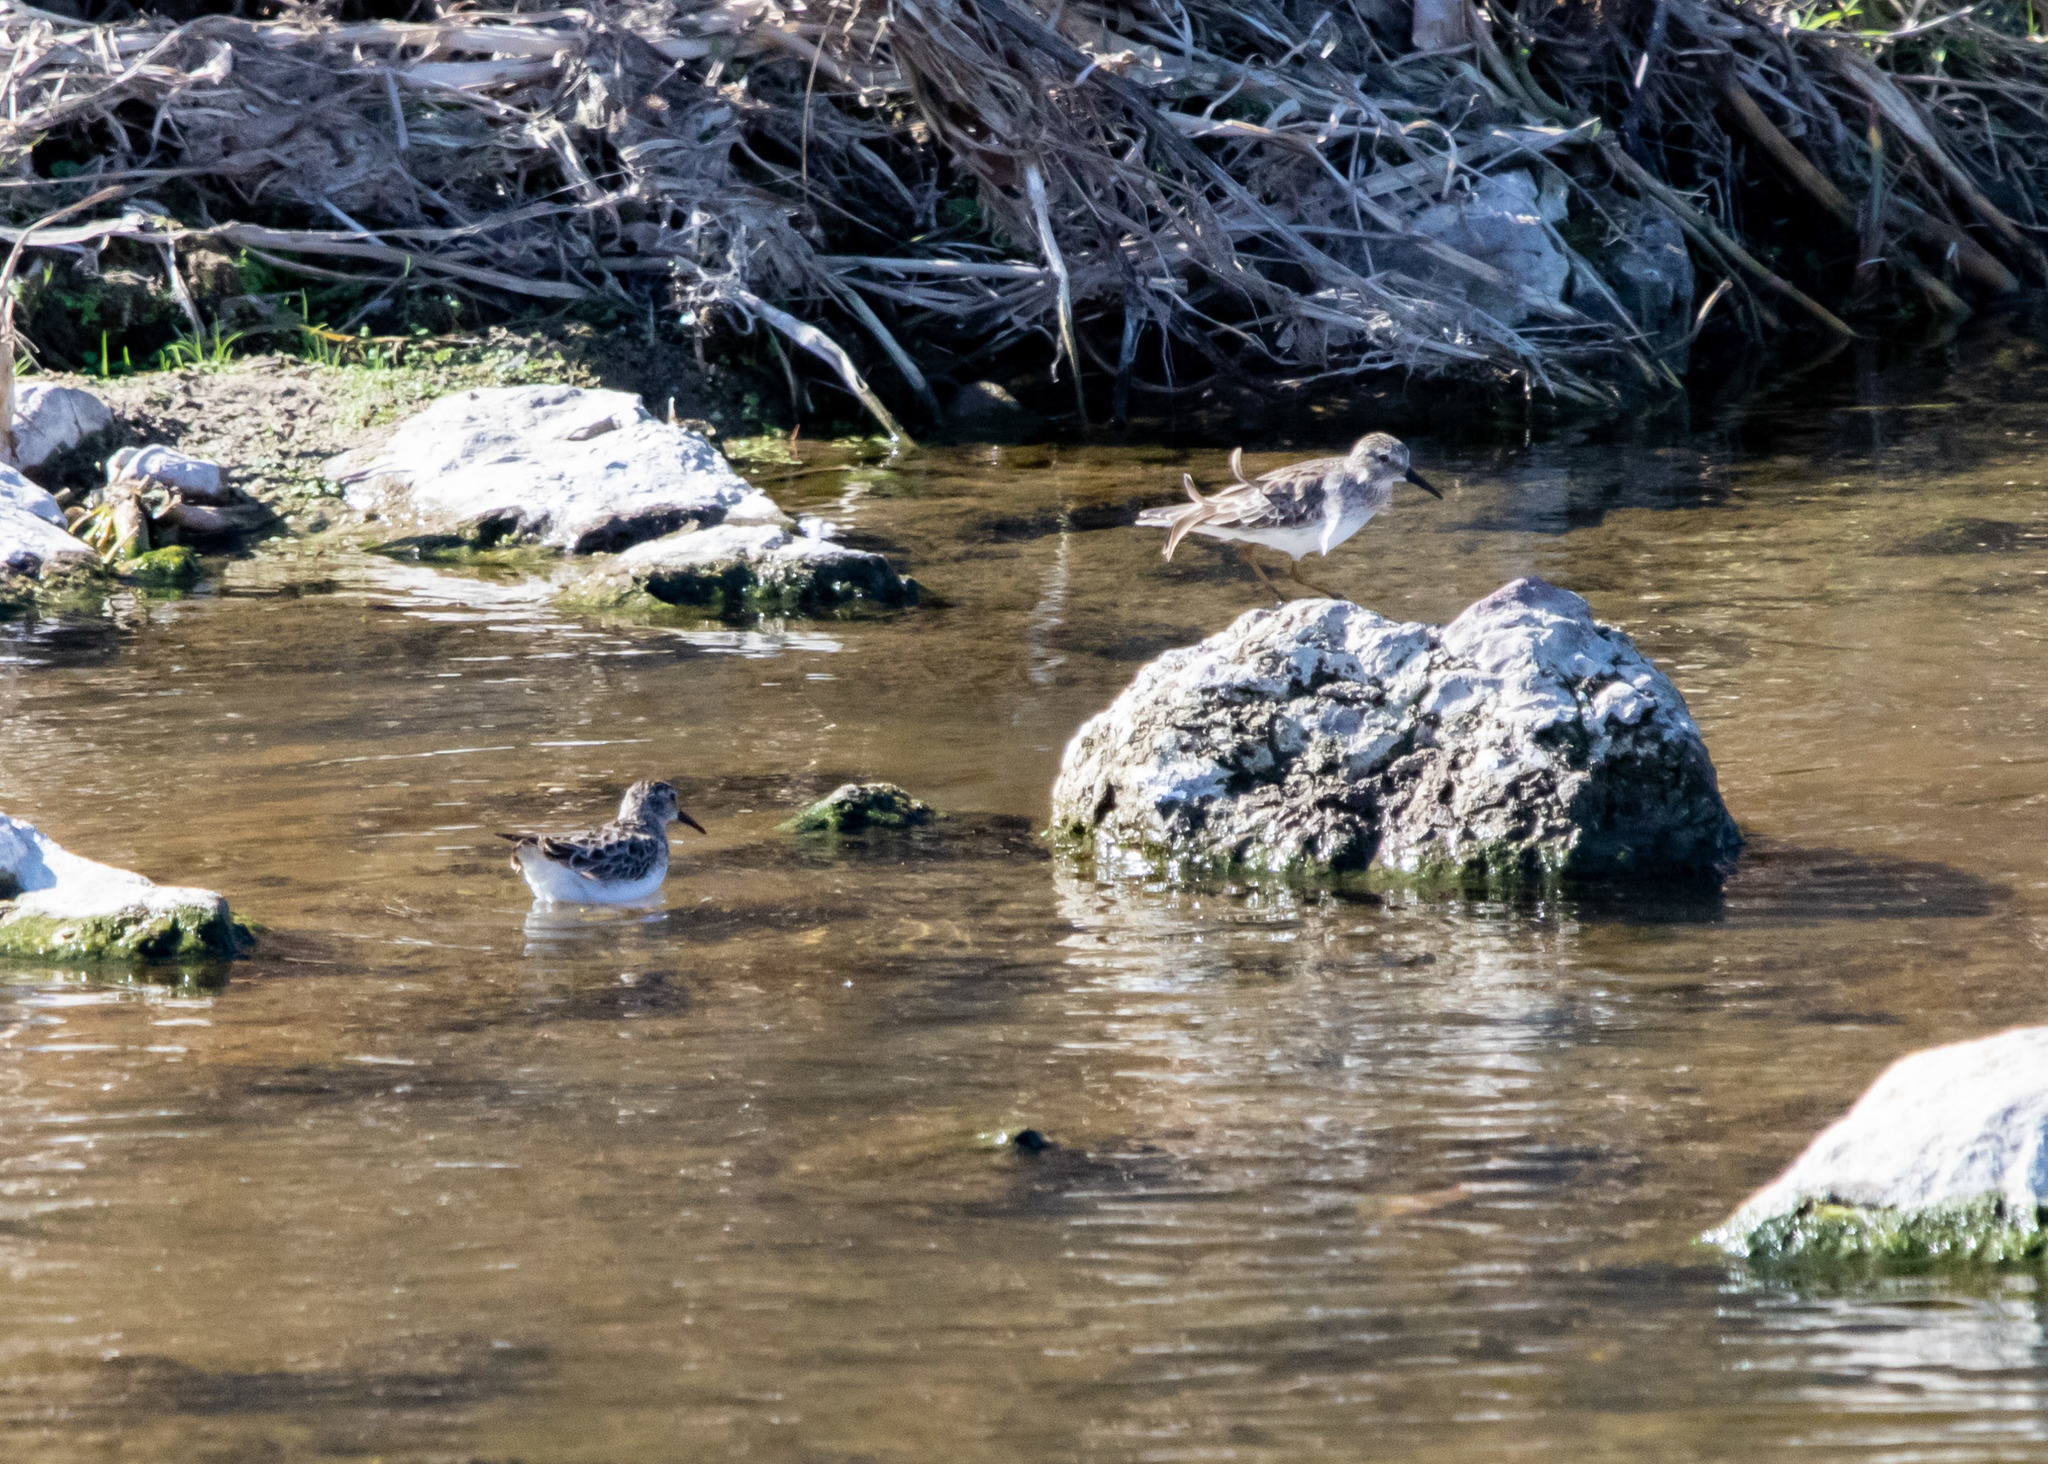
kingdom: Animalia
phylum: Chordata
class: Aves
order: Charadriiformes
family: Scolopacidae
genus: Calidris
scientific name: Calidris minutilla
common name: Least sandpiper
